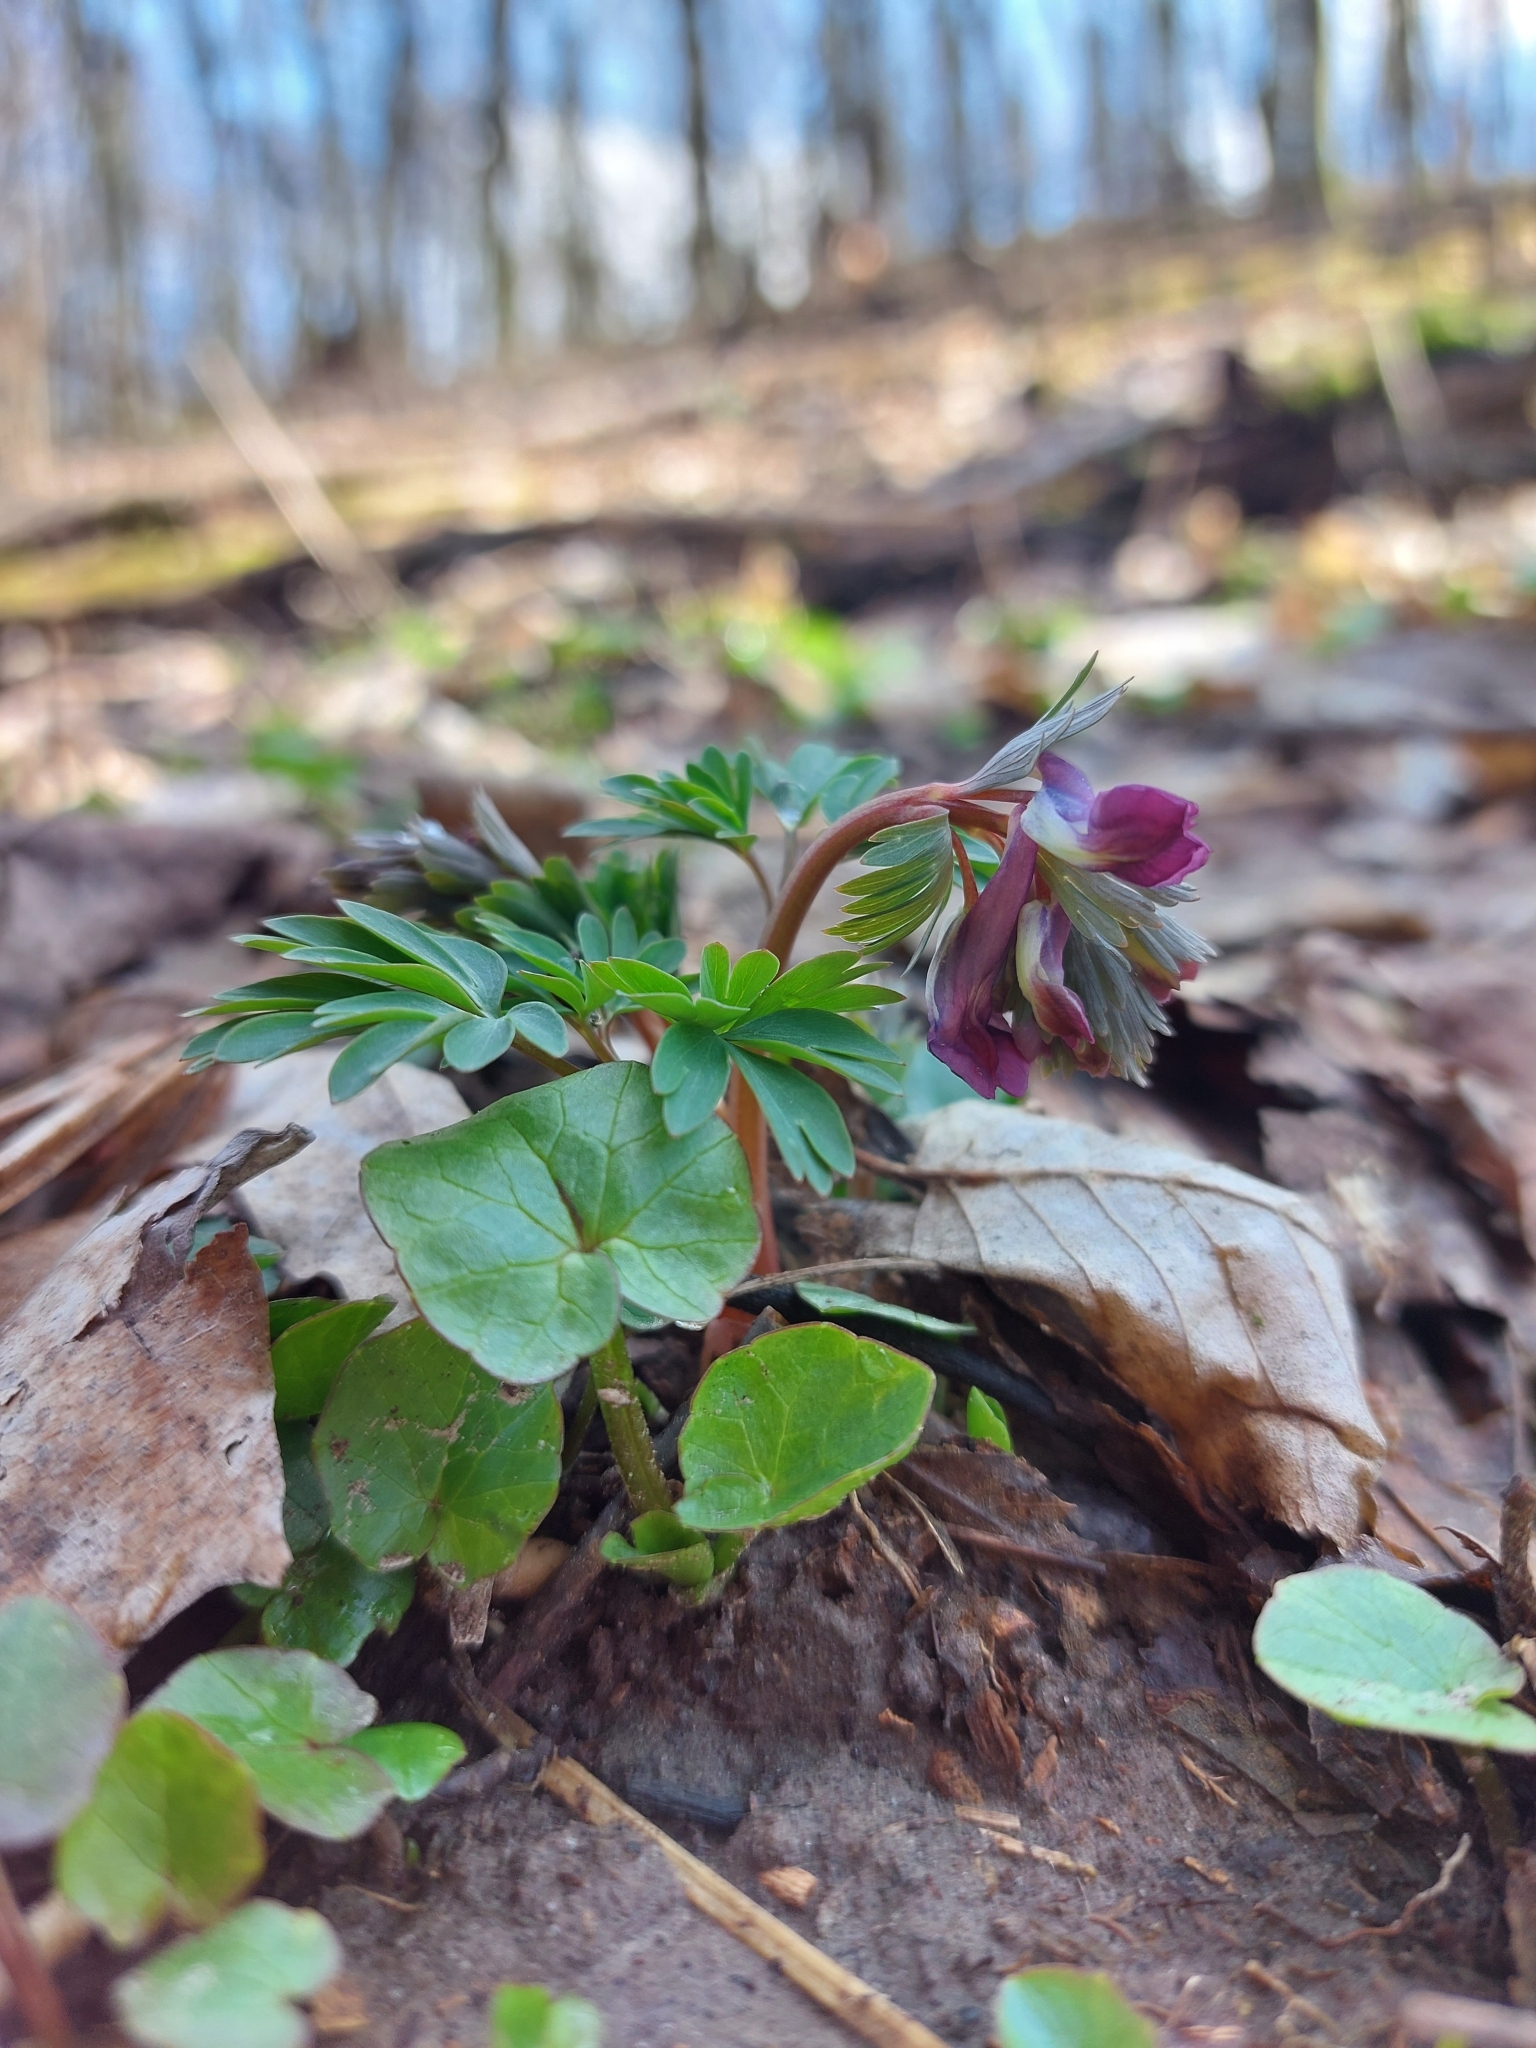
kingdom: Plantae
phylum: Tracheophyta
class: Magnoliopsida
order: Ranunculales
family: Papaveraceae
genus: Corydalis
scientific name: Corydalis solida
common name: Bird-in-a-bush
